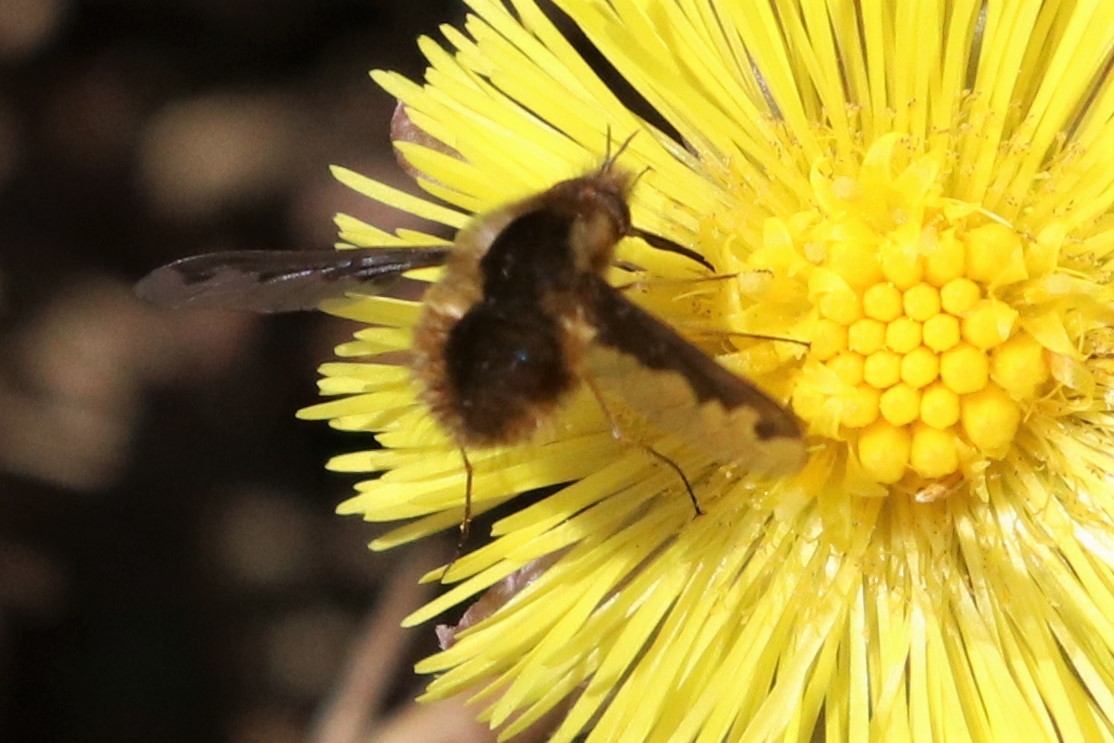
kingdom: Animalia
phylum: Arthropoda
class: Insecta
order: Diptera
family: Bombyliidae
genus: Bombylius
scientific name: Bombylius major
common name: Bee fly
